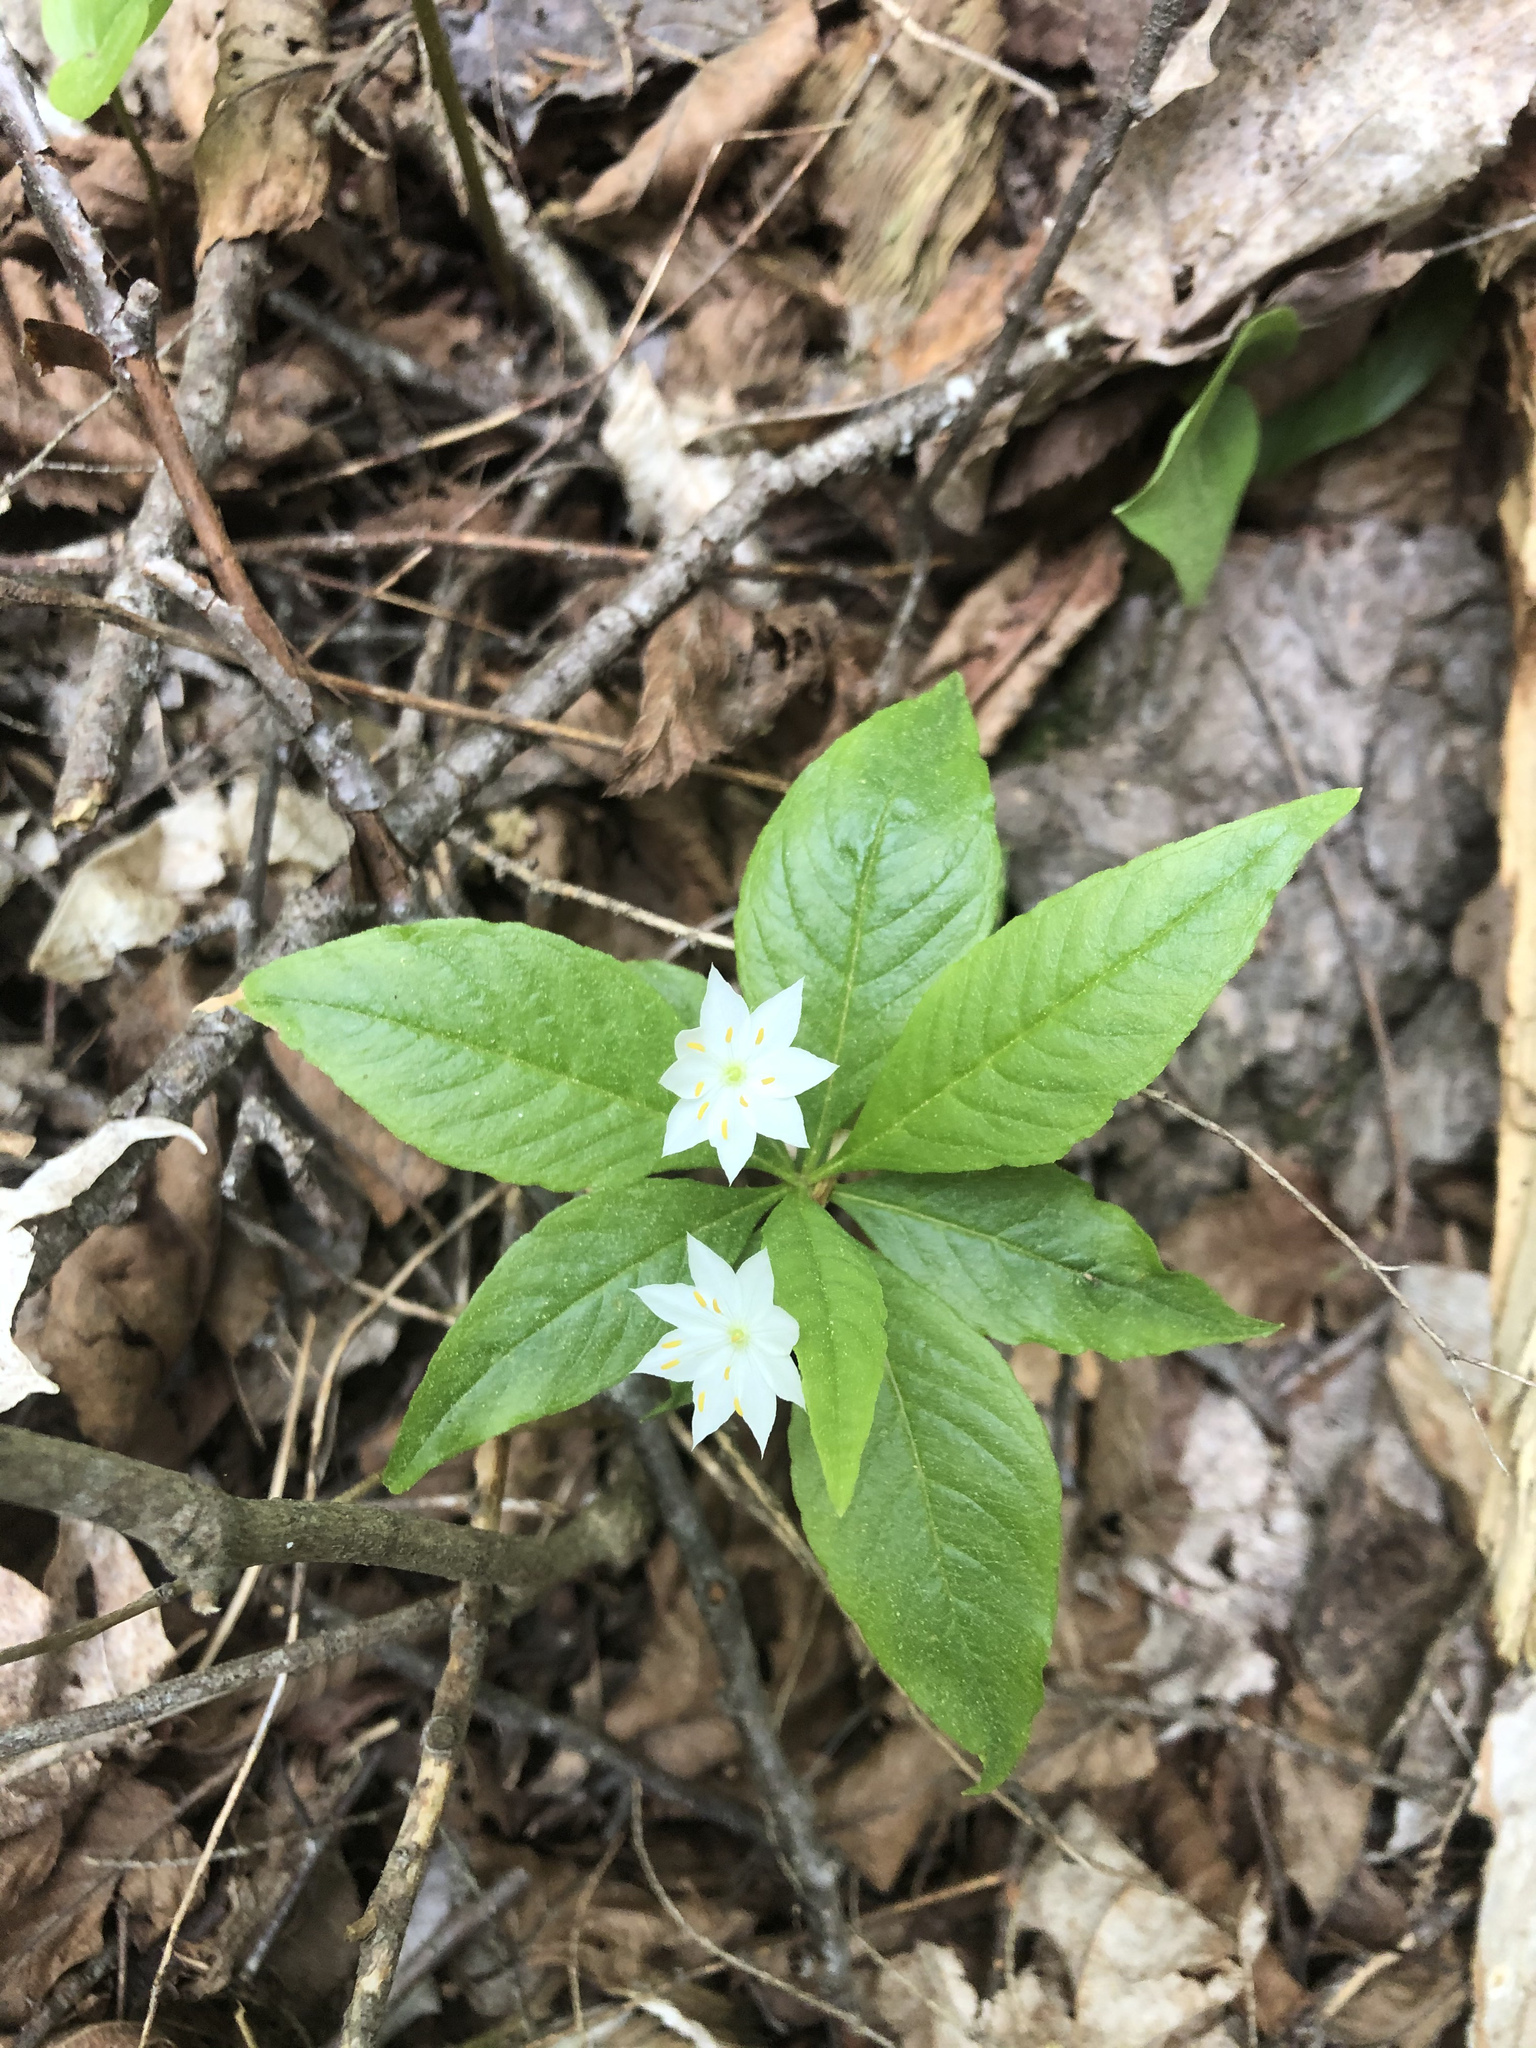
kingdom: Plantae
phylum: Tracheophyta
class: Magnoliopsida
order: Ericales
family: Primulaceae
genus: Lysimachia
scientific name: Lysimachia borealis
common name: American starflower
